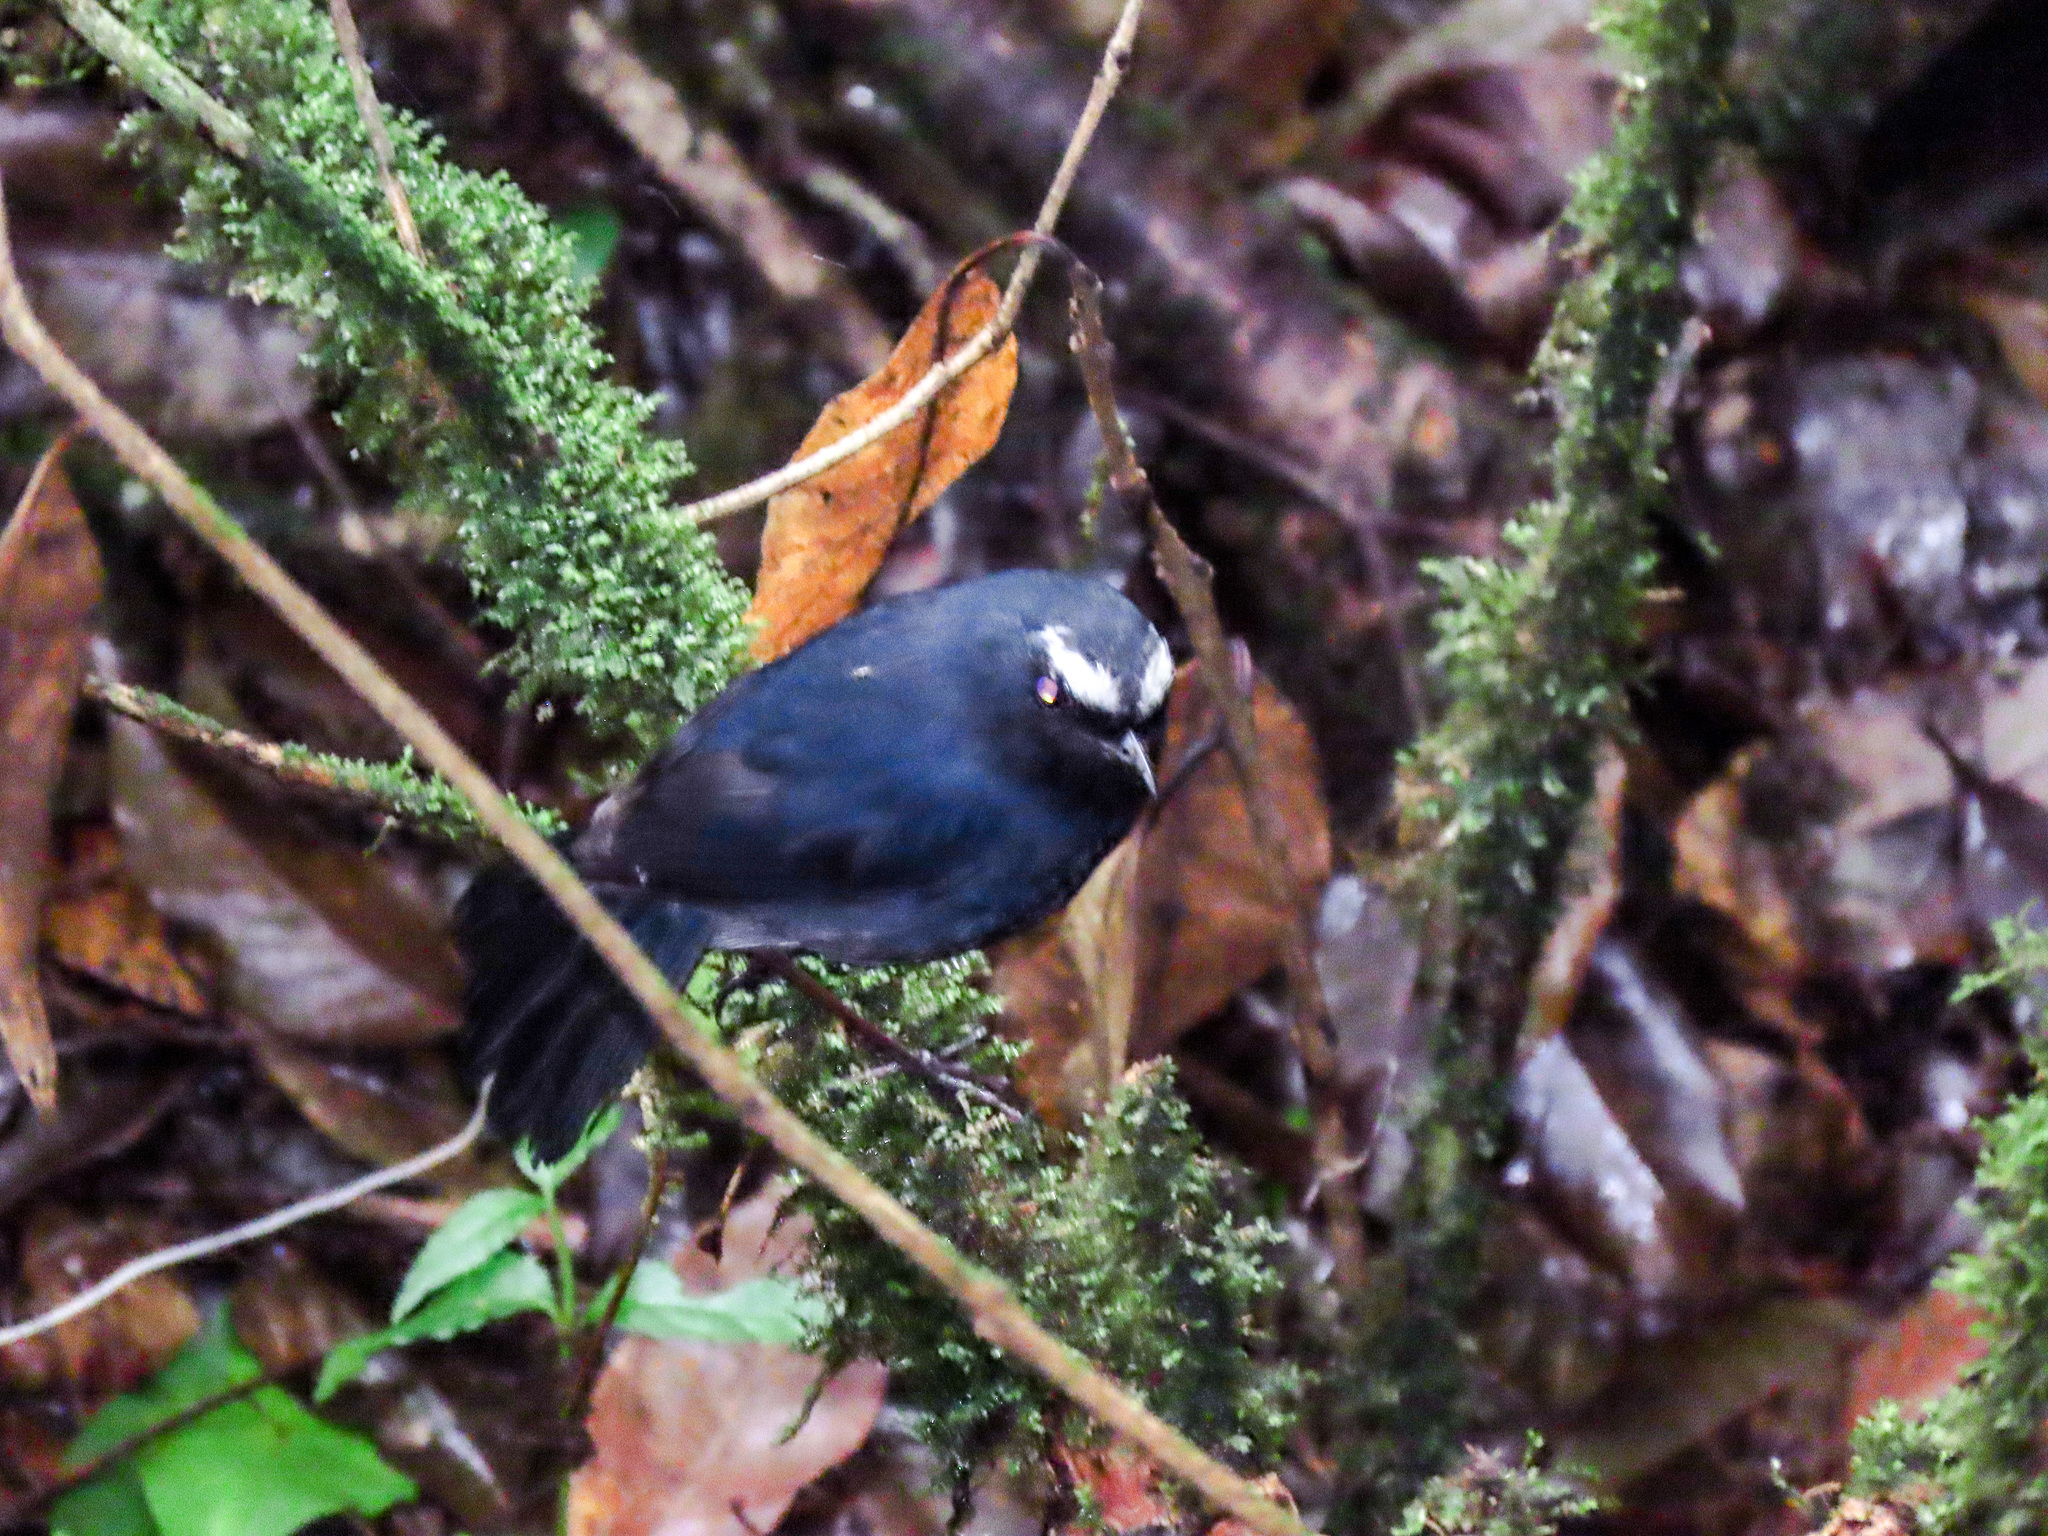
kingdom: Animalia
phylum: Chordata
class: Aves
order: Passeriformes
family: Muscicapidae
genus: Brachypteryx
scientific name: Brachypteryx montana
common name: White-browed shortwing
